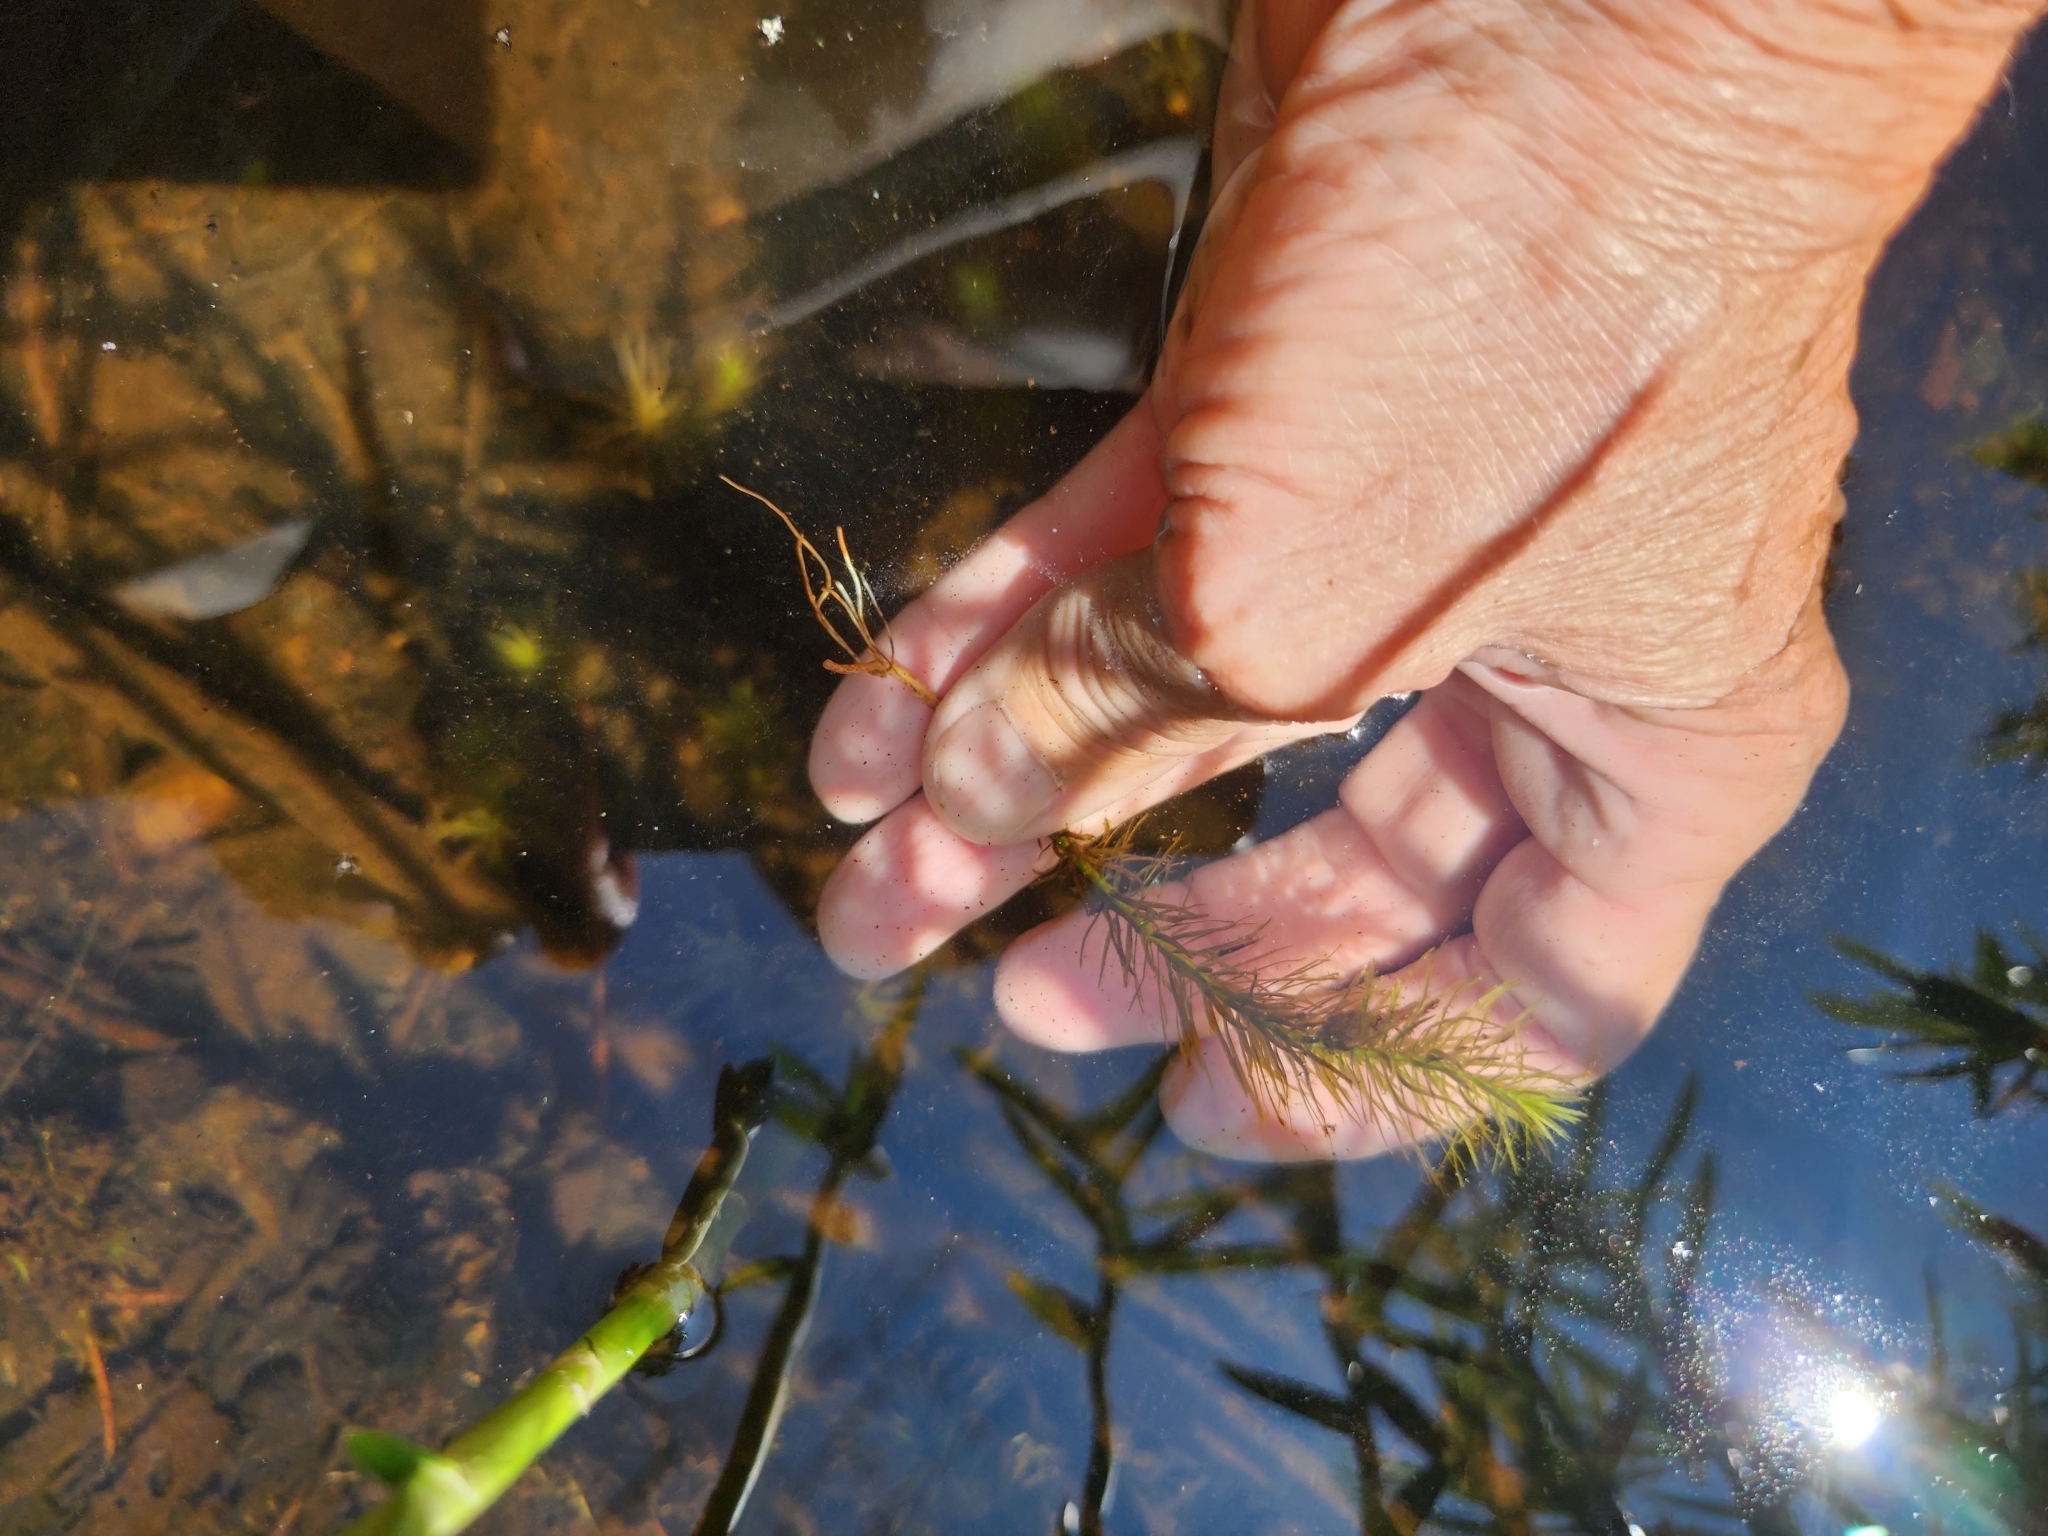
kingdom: Plantae
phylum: Tracheophyta
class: Magnoliopsida
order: Lamiales
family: Plantaginaceae
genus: Hippuris
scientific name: Hippuris vulgaris
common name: Mare's-tail
